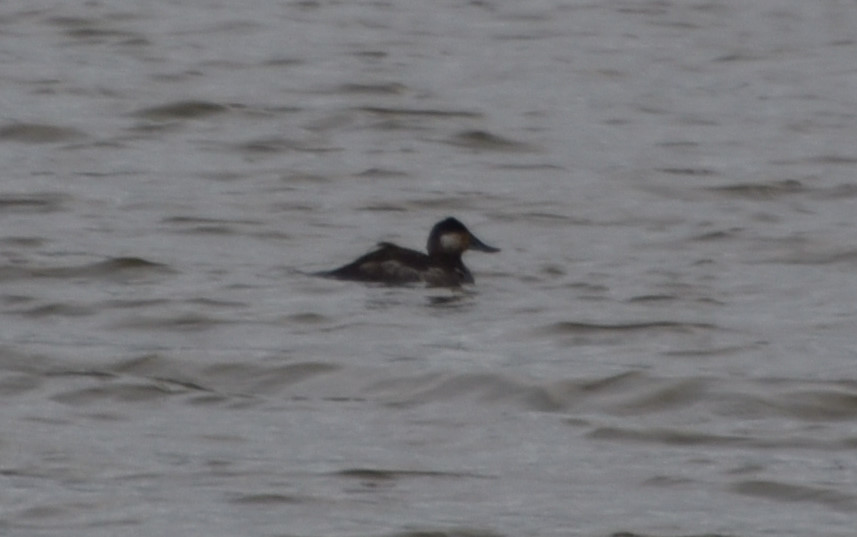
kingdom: Animalia
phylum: Chordata
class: Aves
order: Anseriformes
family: Anatidae
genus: Oxyura
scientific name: Oxyura jamaicensis
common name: Ruddy duck
